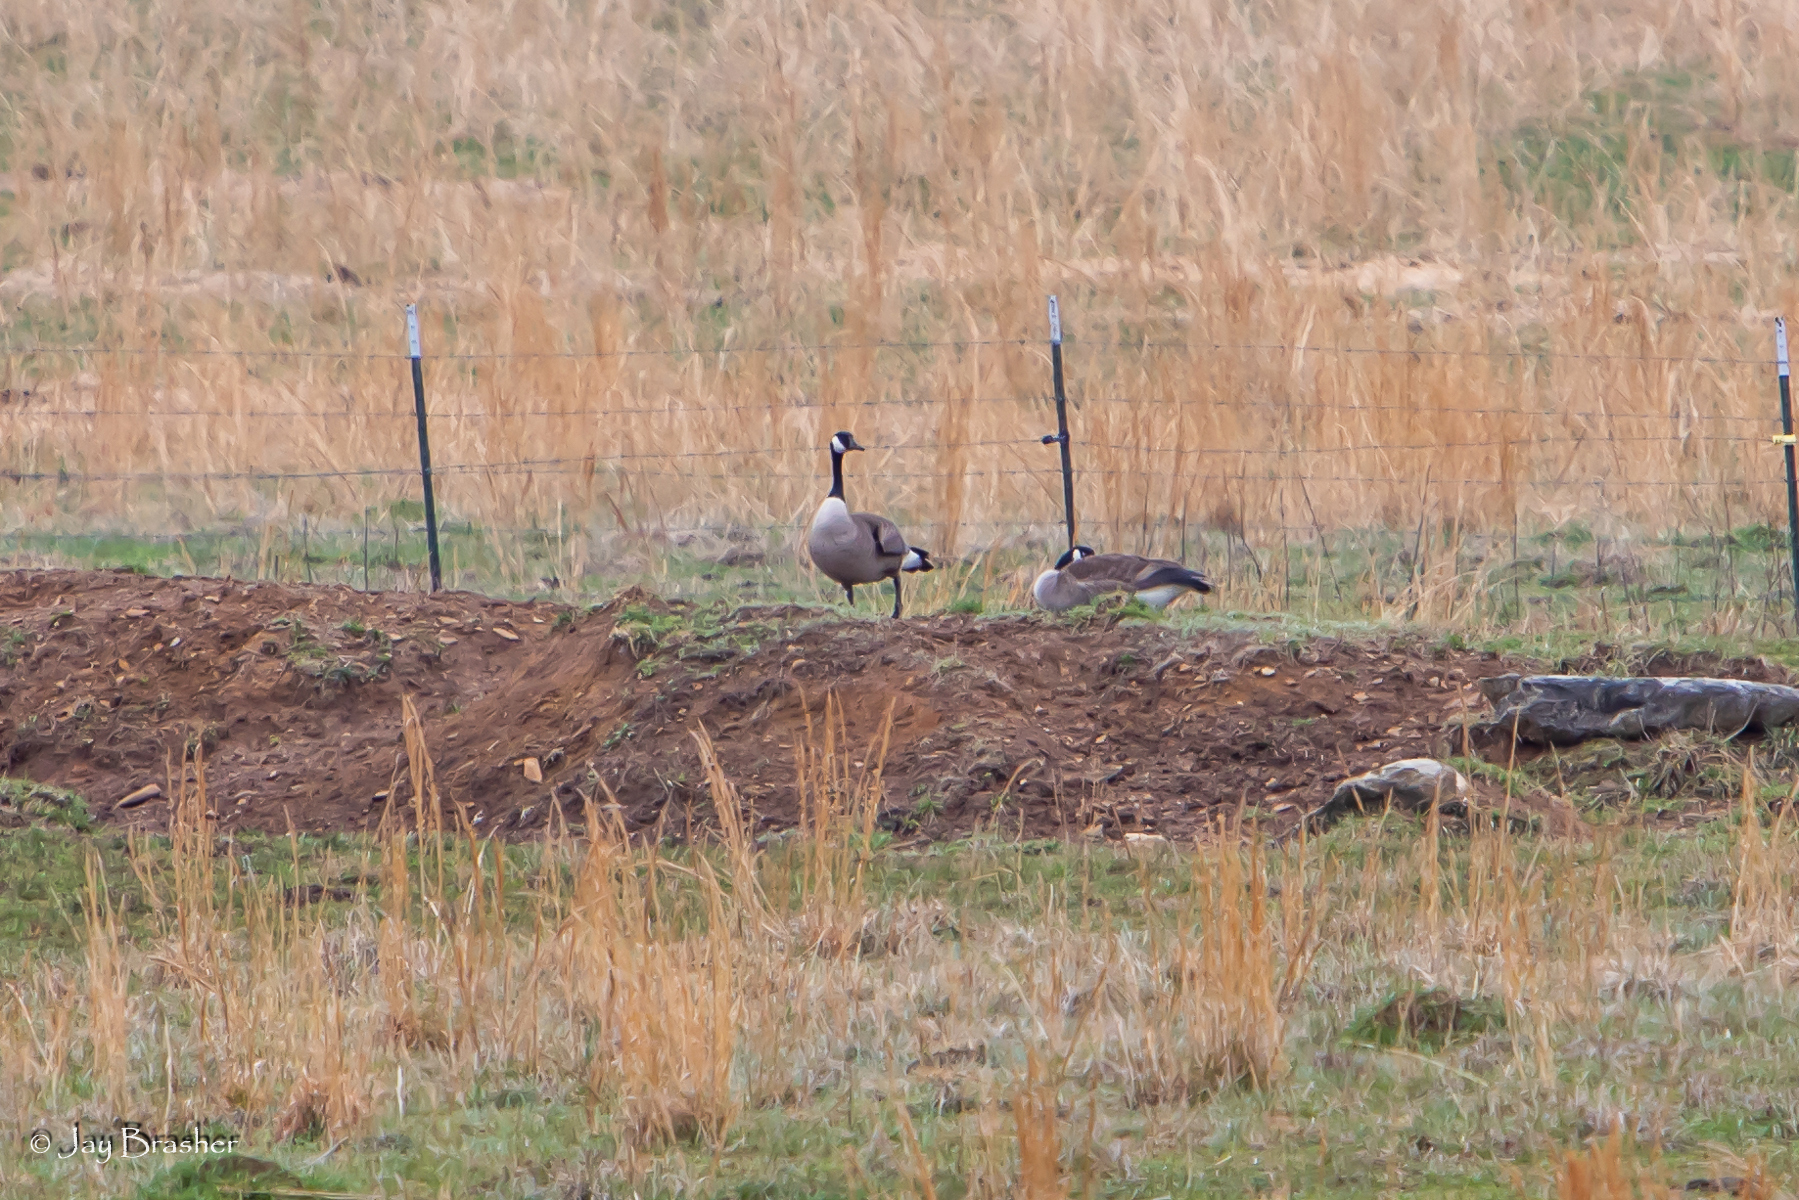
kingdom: Animalia
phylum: Chordata
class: Aves
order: Anseriformes
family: Anatidae
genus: Branta
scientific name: Branta canadensis
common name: Canada goose
